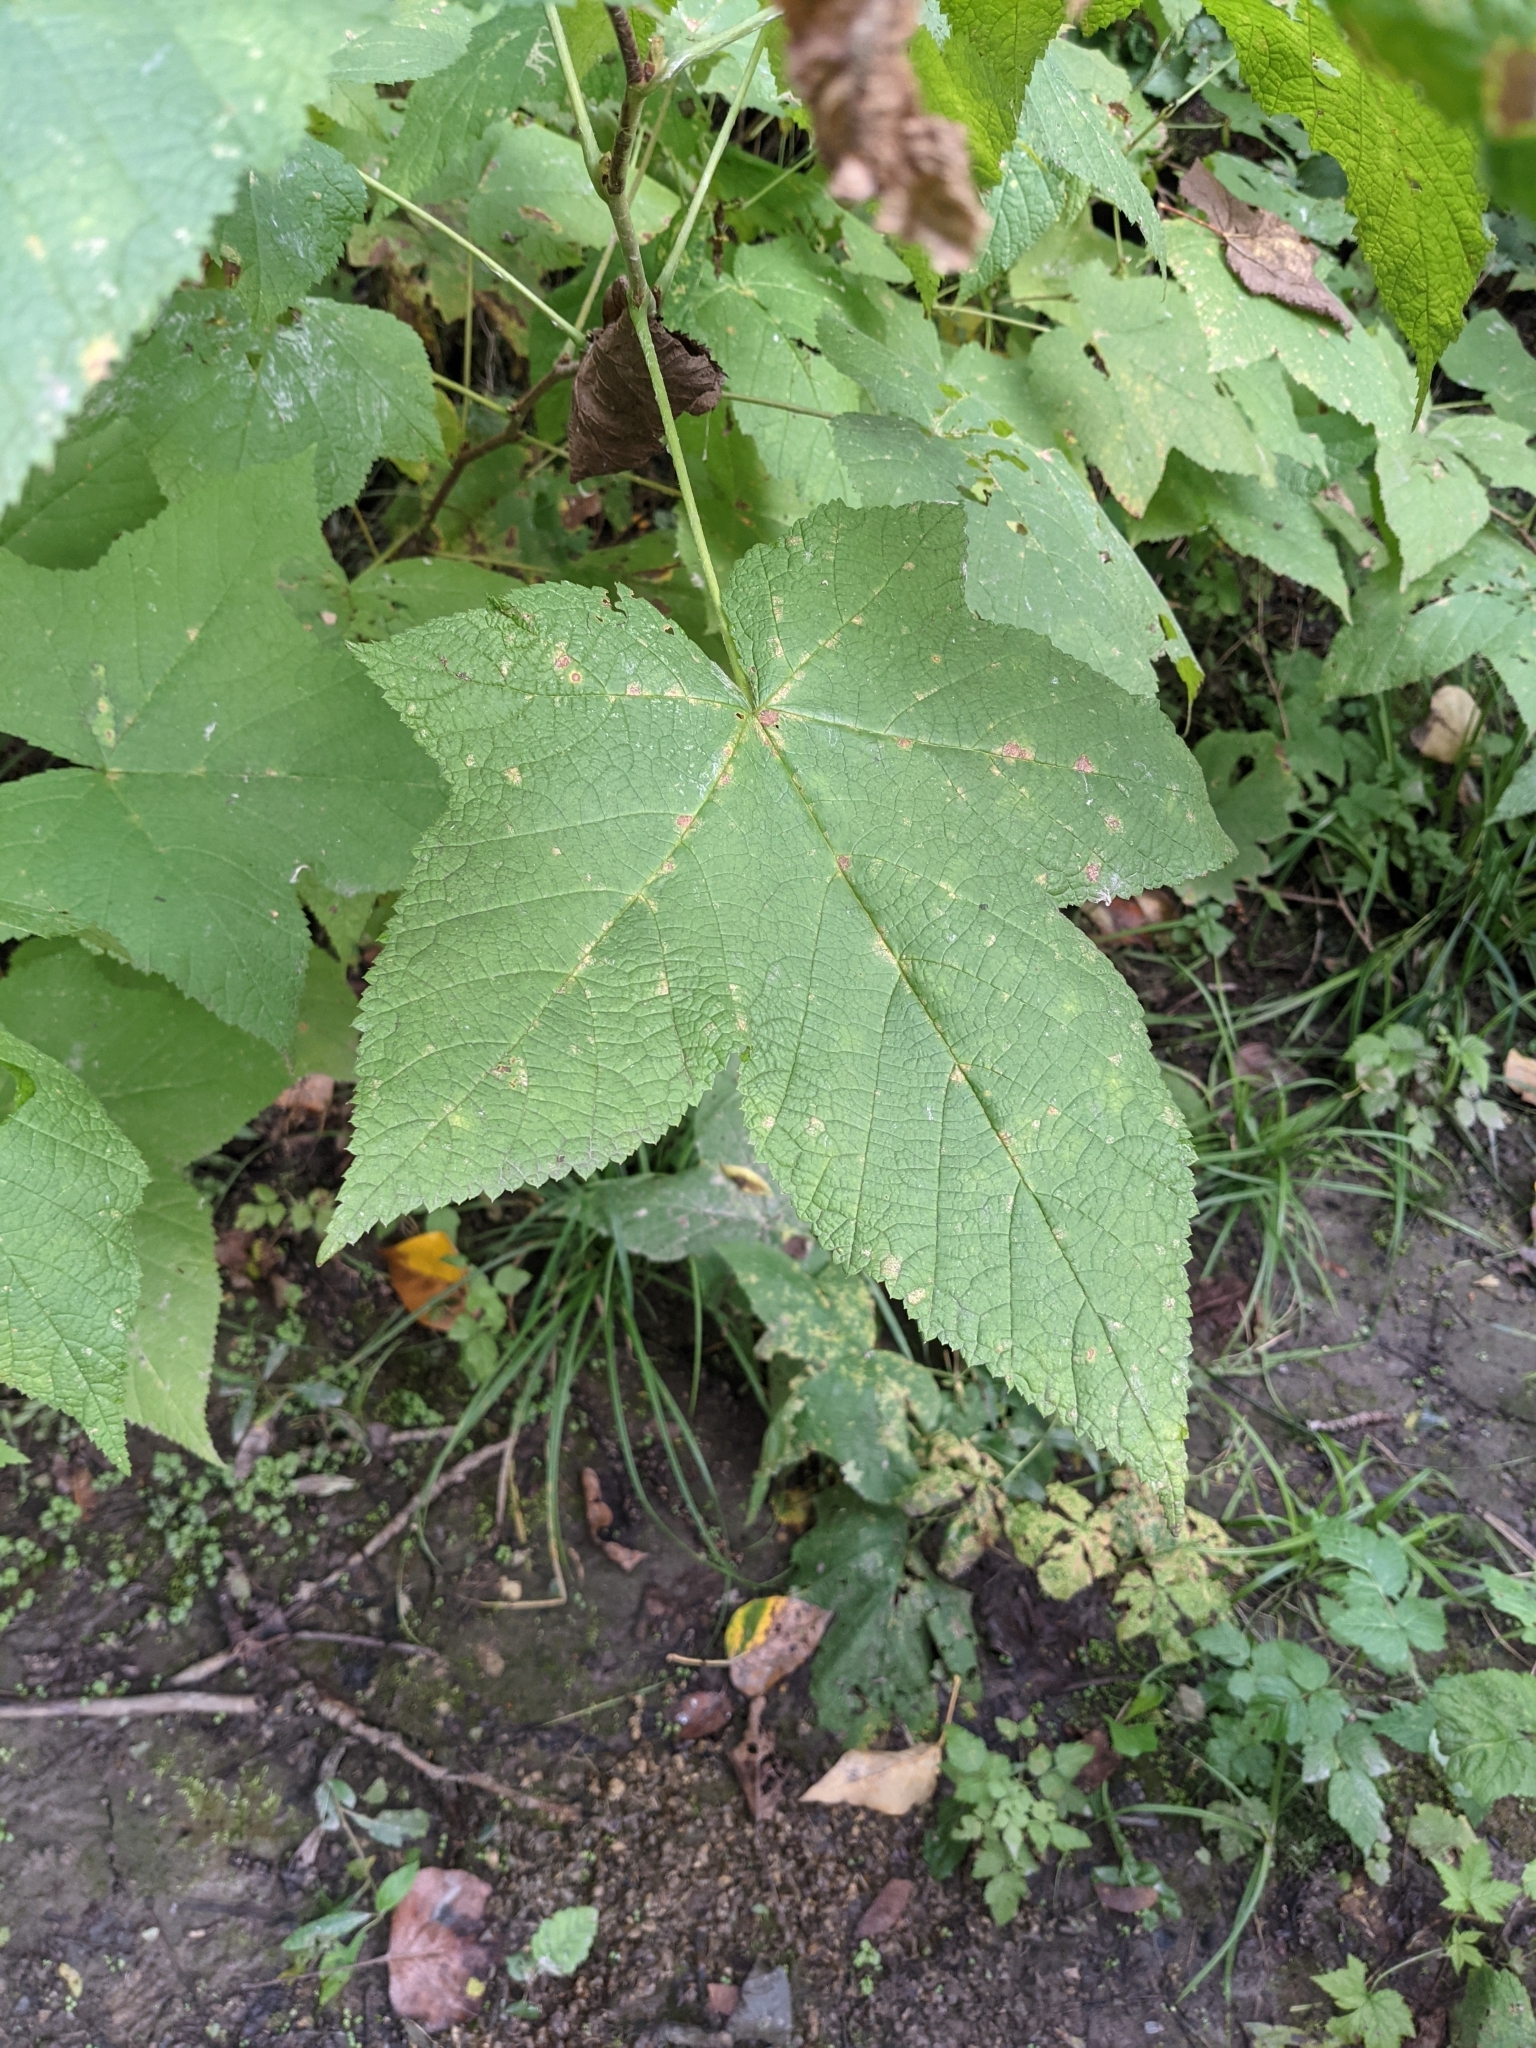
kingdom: Plantae
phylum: Tracheophyta
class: Magnoliopsida
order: Rosales
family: Rosaceae
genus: Rubus
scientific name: Rubus parviflorus
